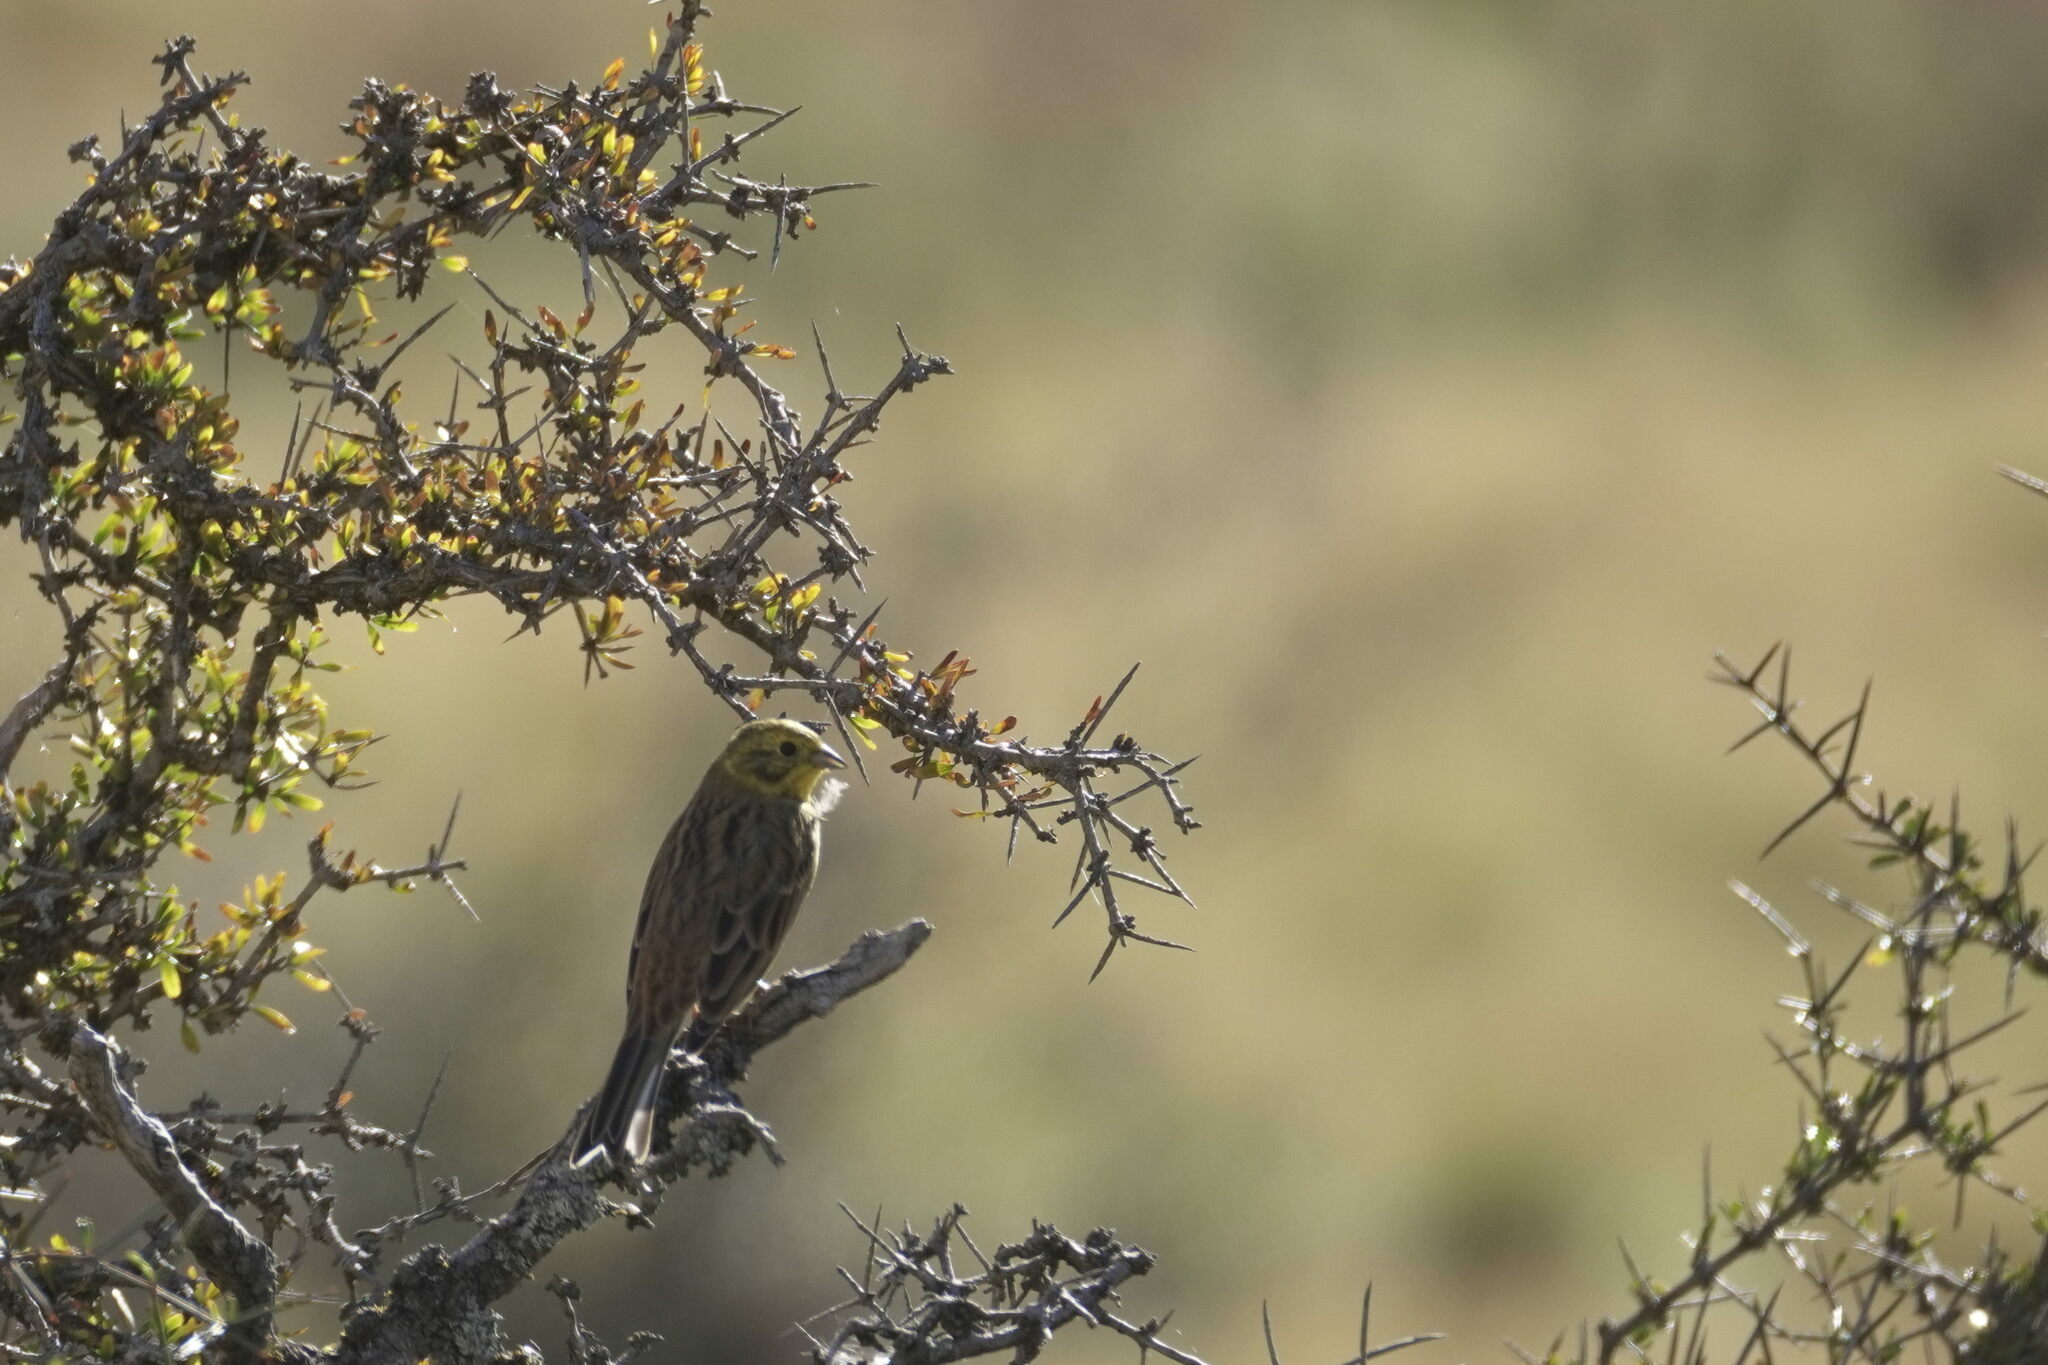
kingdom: Animalia
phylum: Chordata
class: Aves
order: Passeriformes
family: Emberizidae
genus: Emberiza
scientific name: Emberiza citrinella
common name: Yellowhammer
